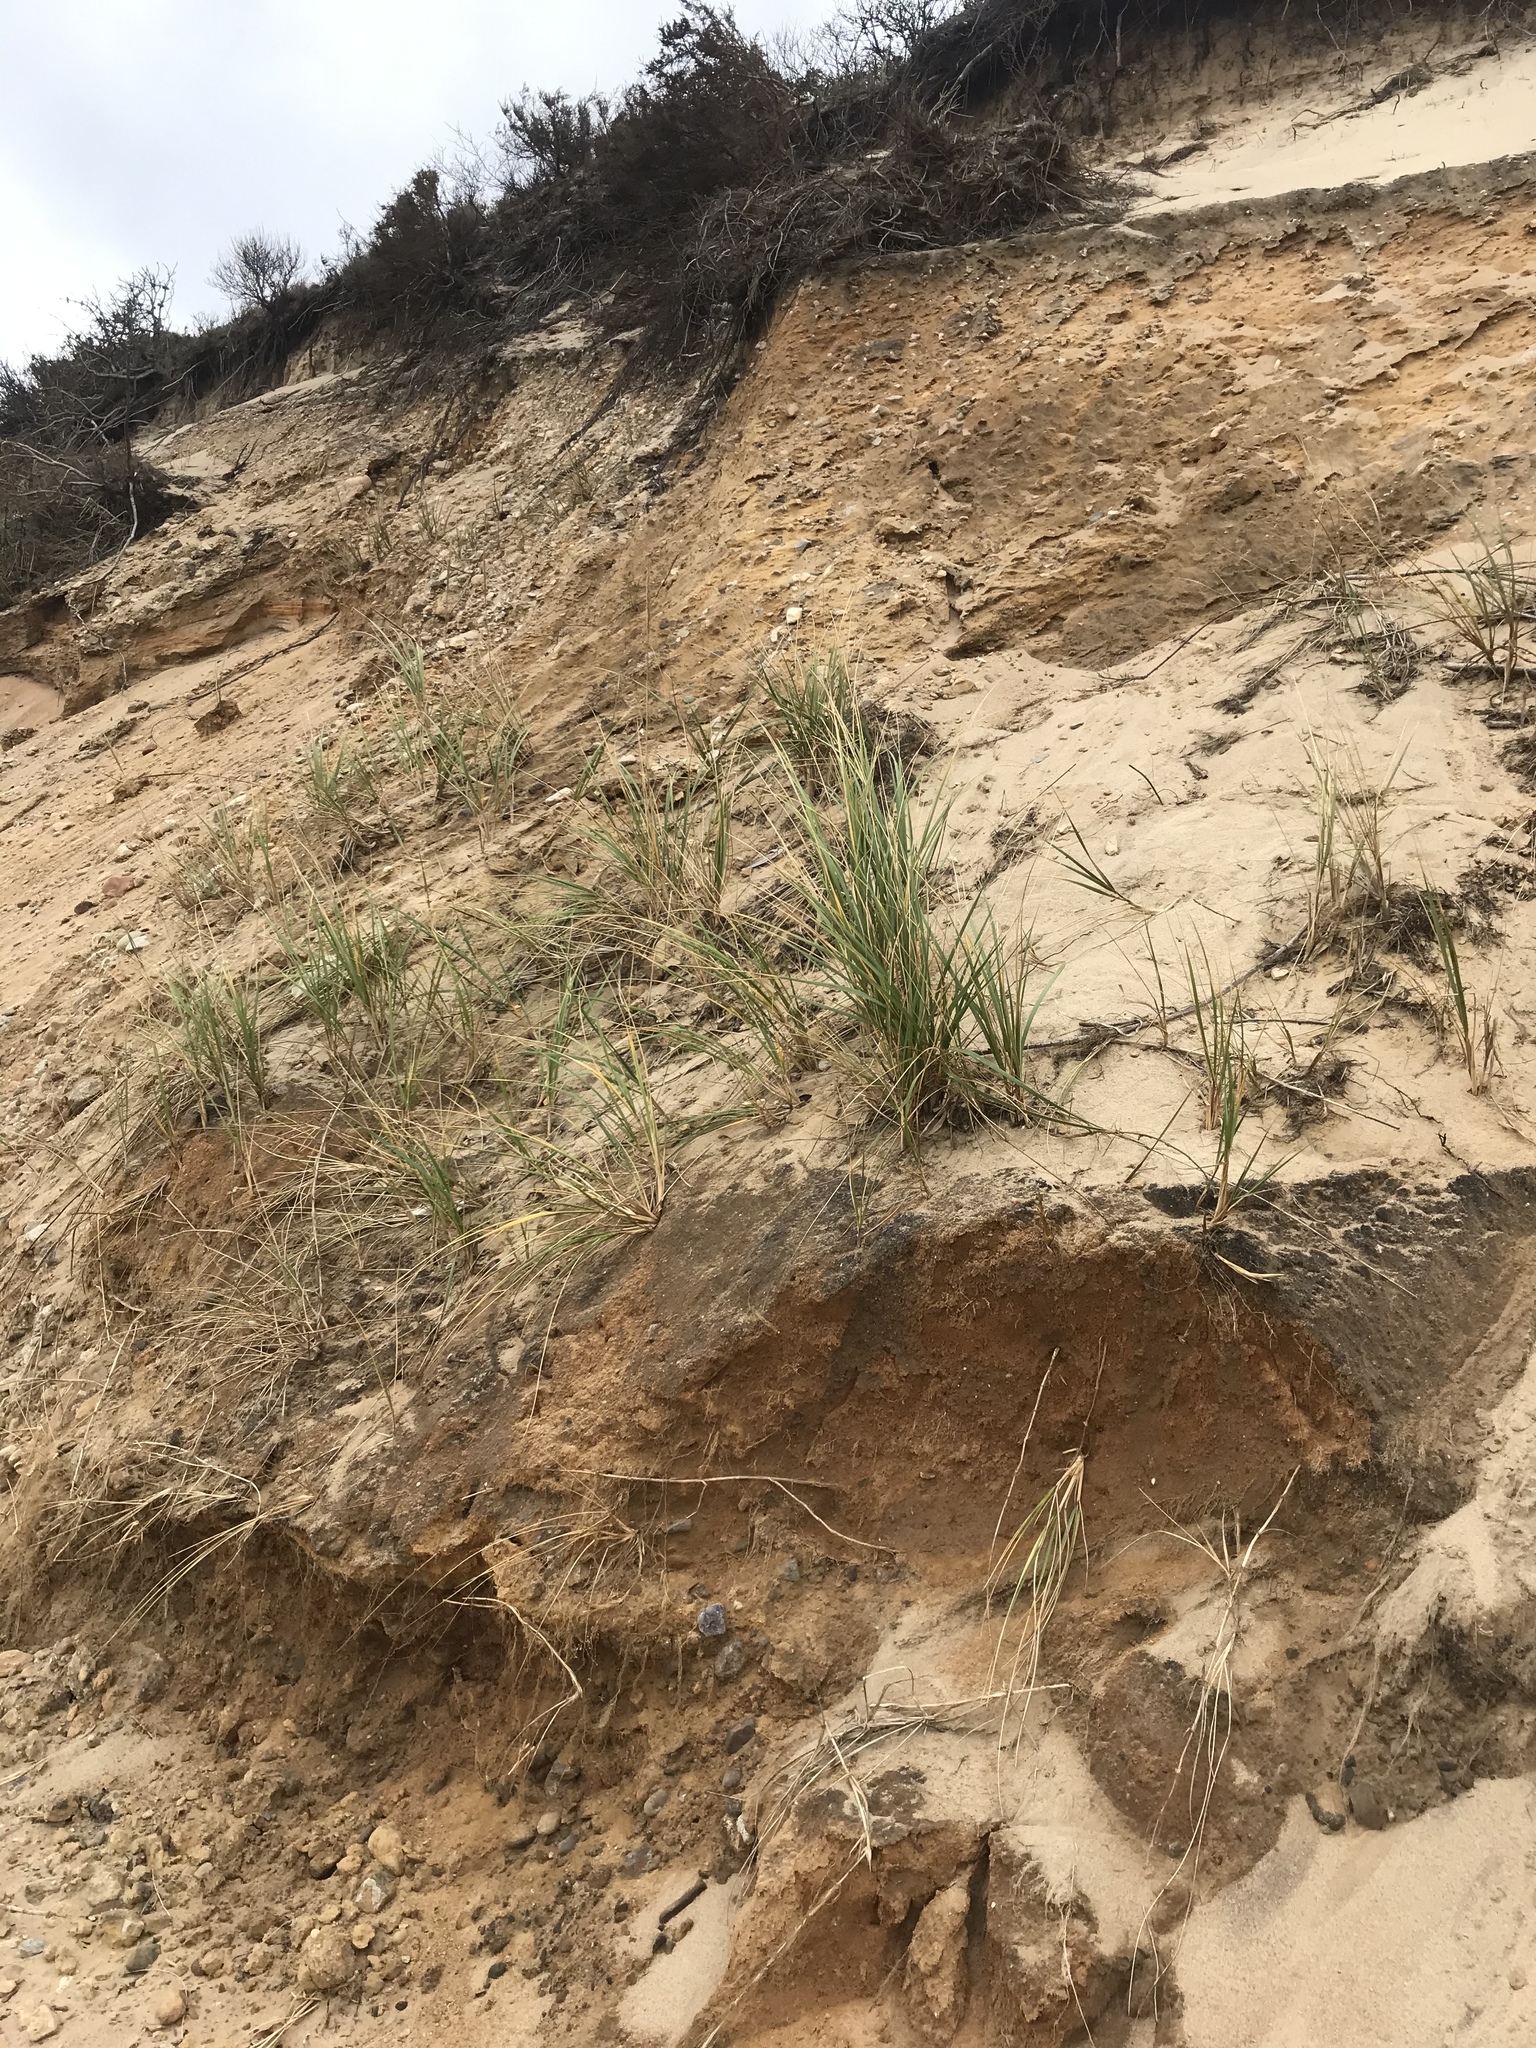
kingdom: Plantae
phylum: Tracheophyta
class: Liliopsida
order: Poales
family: Poaceae
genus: Calamagrostis
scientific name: Calamagrostis breviligulata
